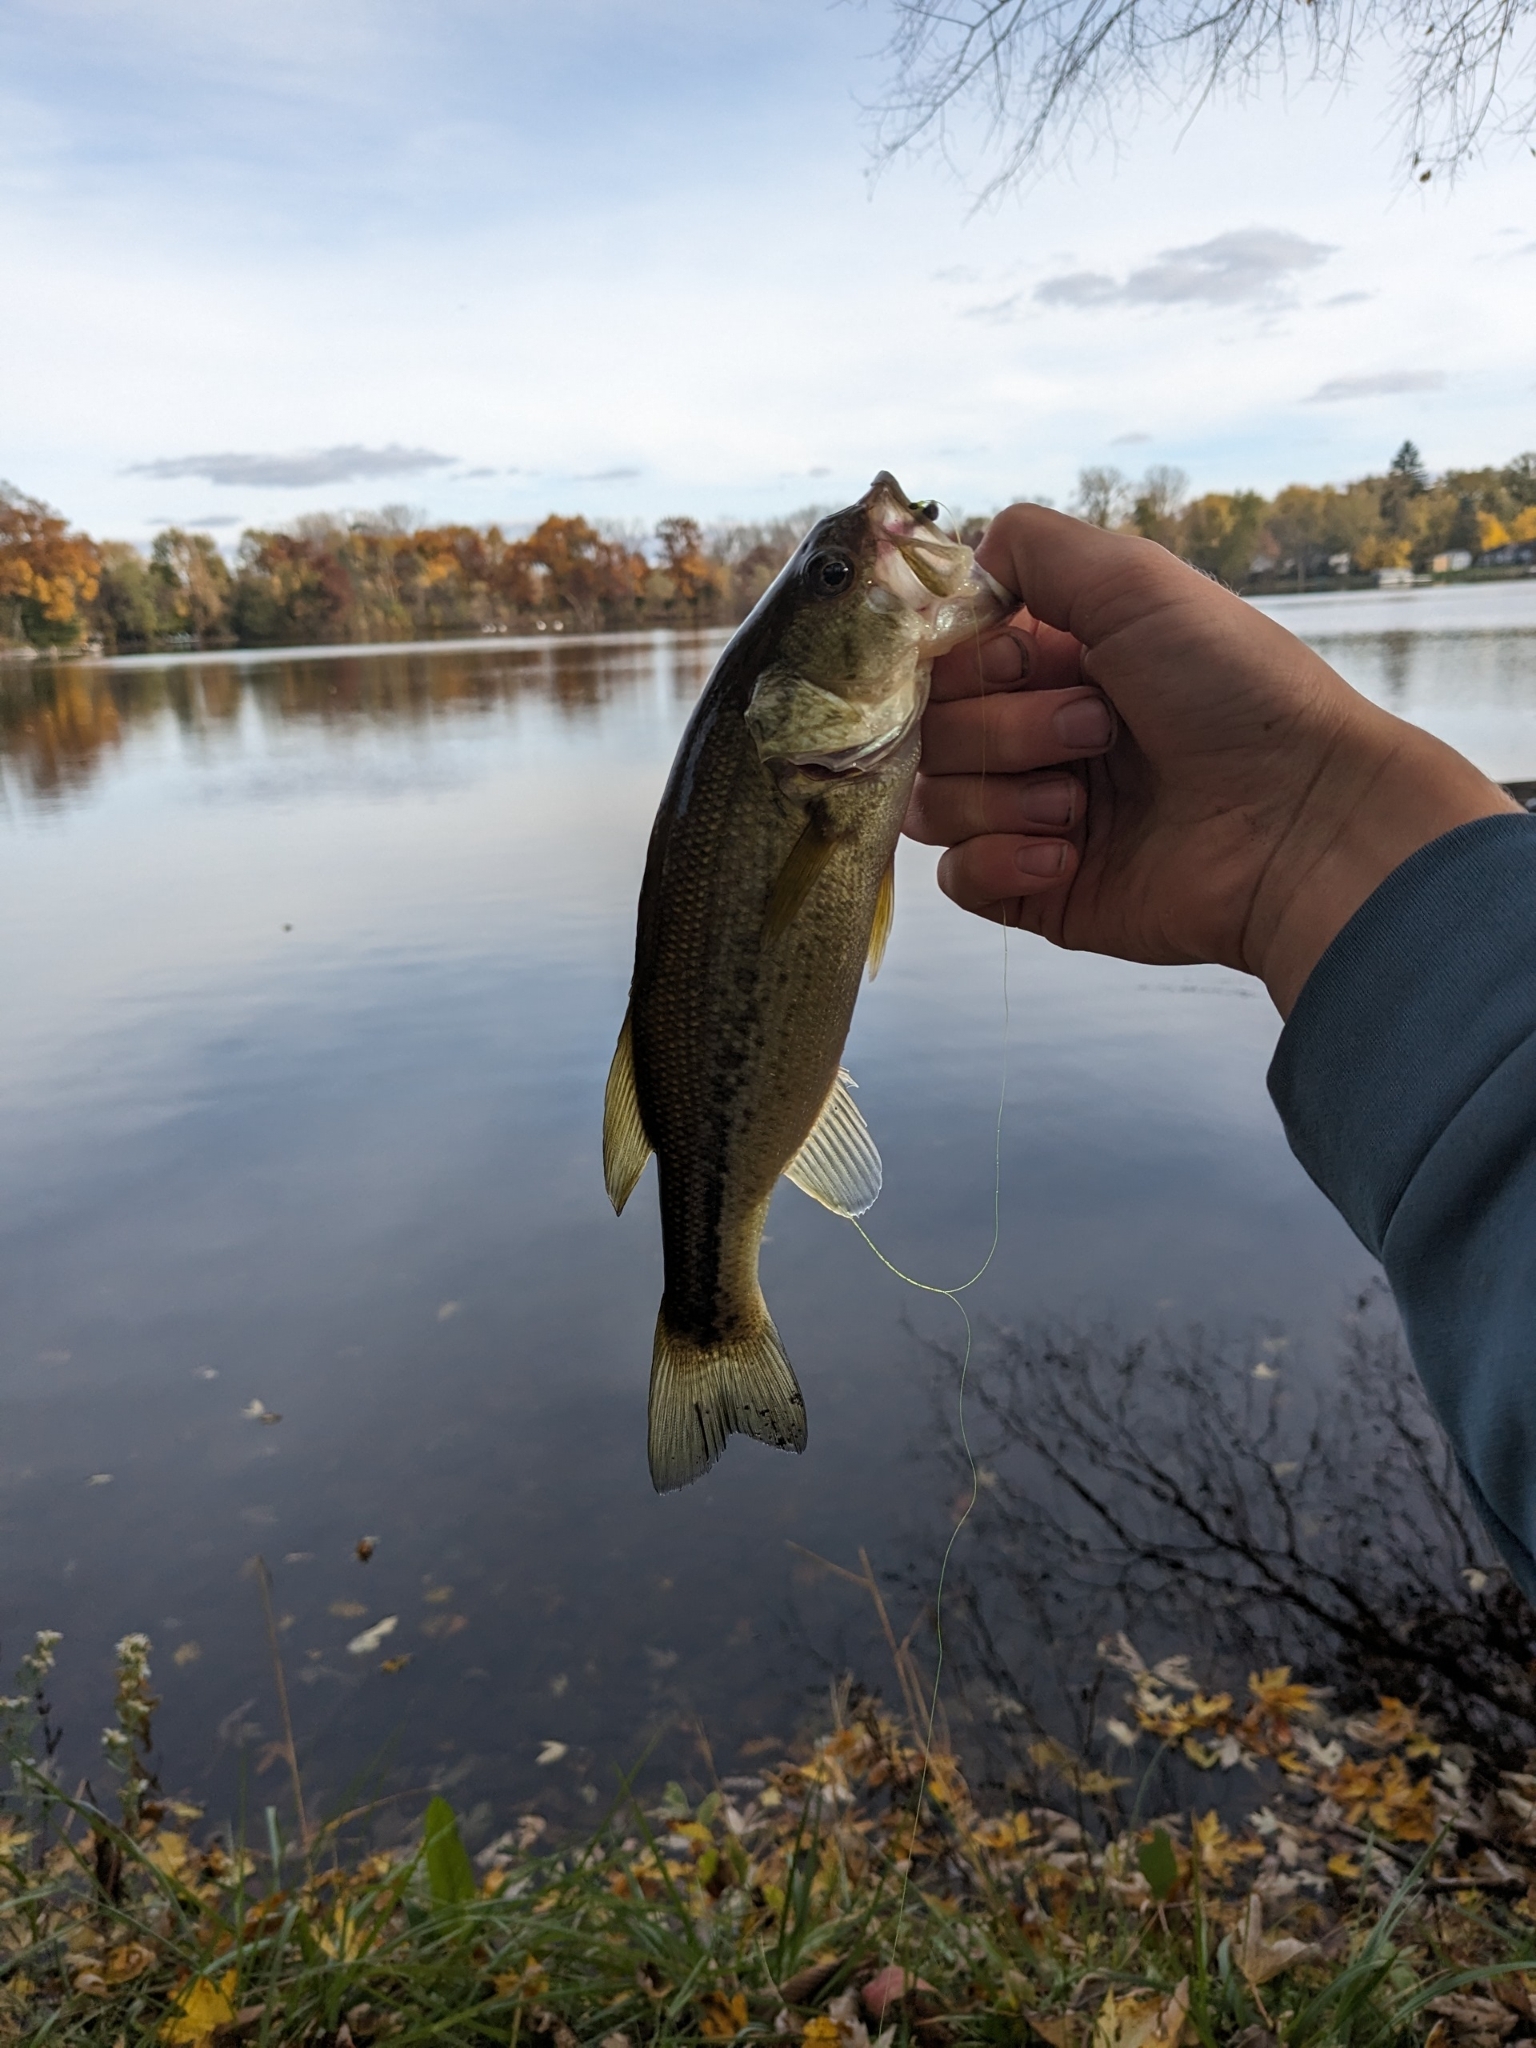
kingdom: Animalia
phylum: Chordata
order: Perciformes
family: Centrarchidae
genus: Micropterus
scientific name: Micropterus
